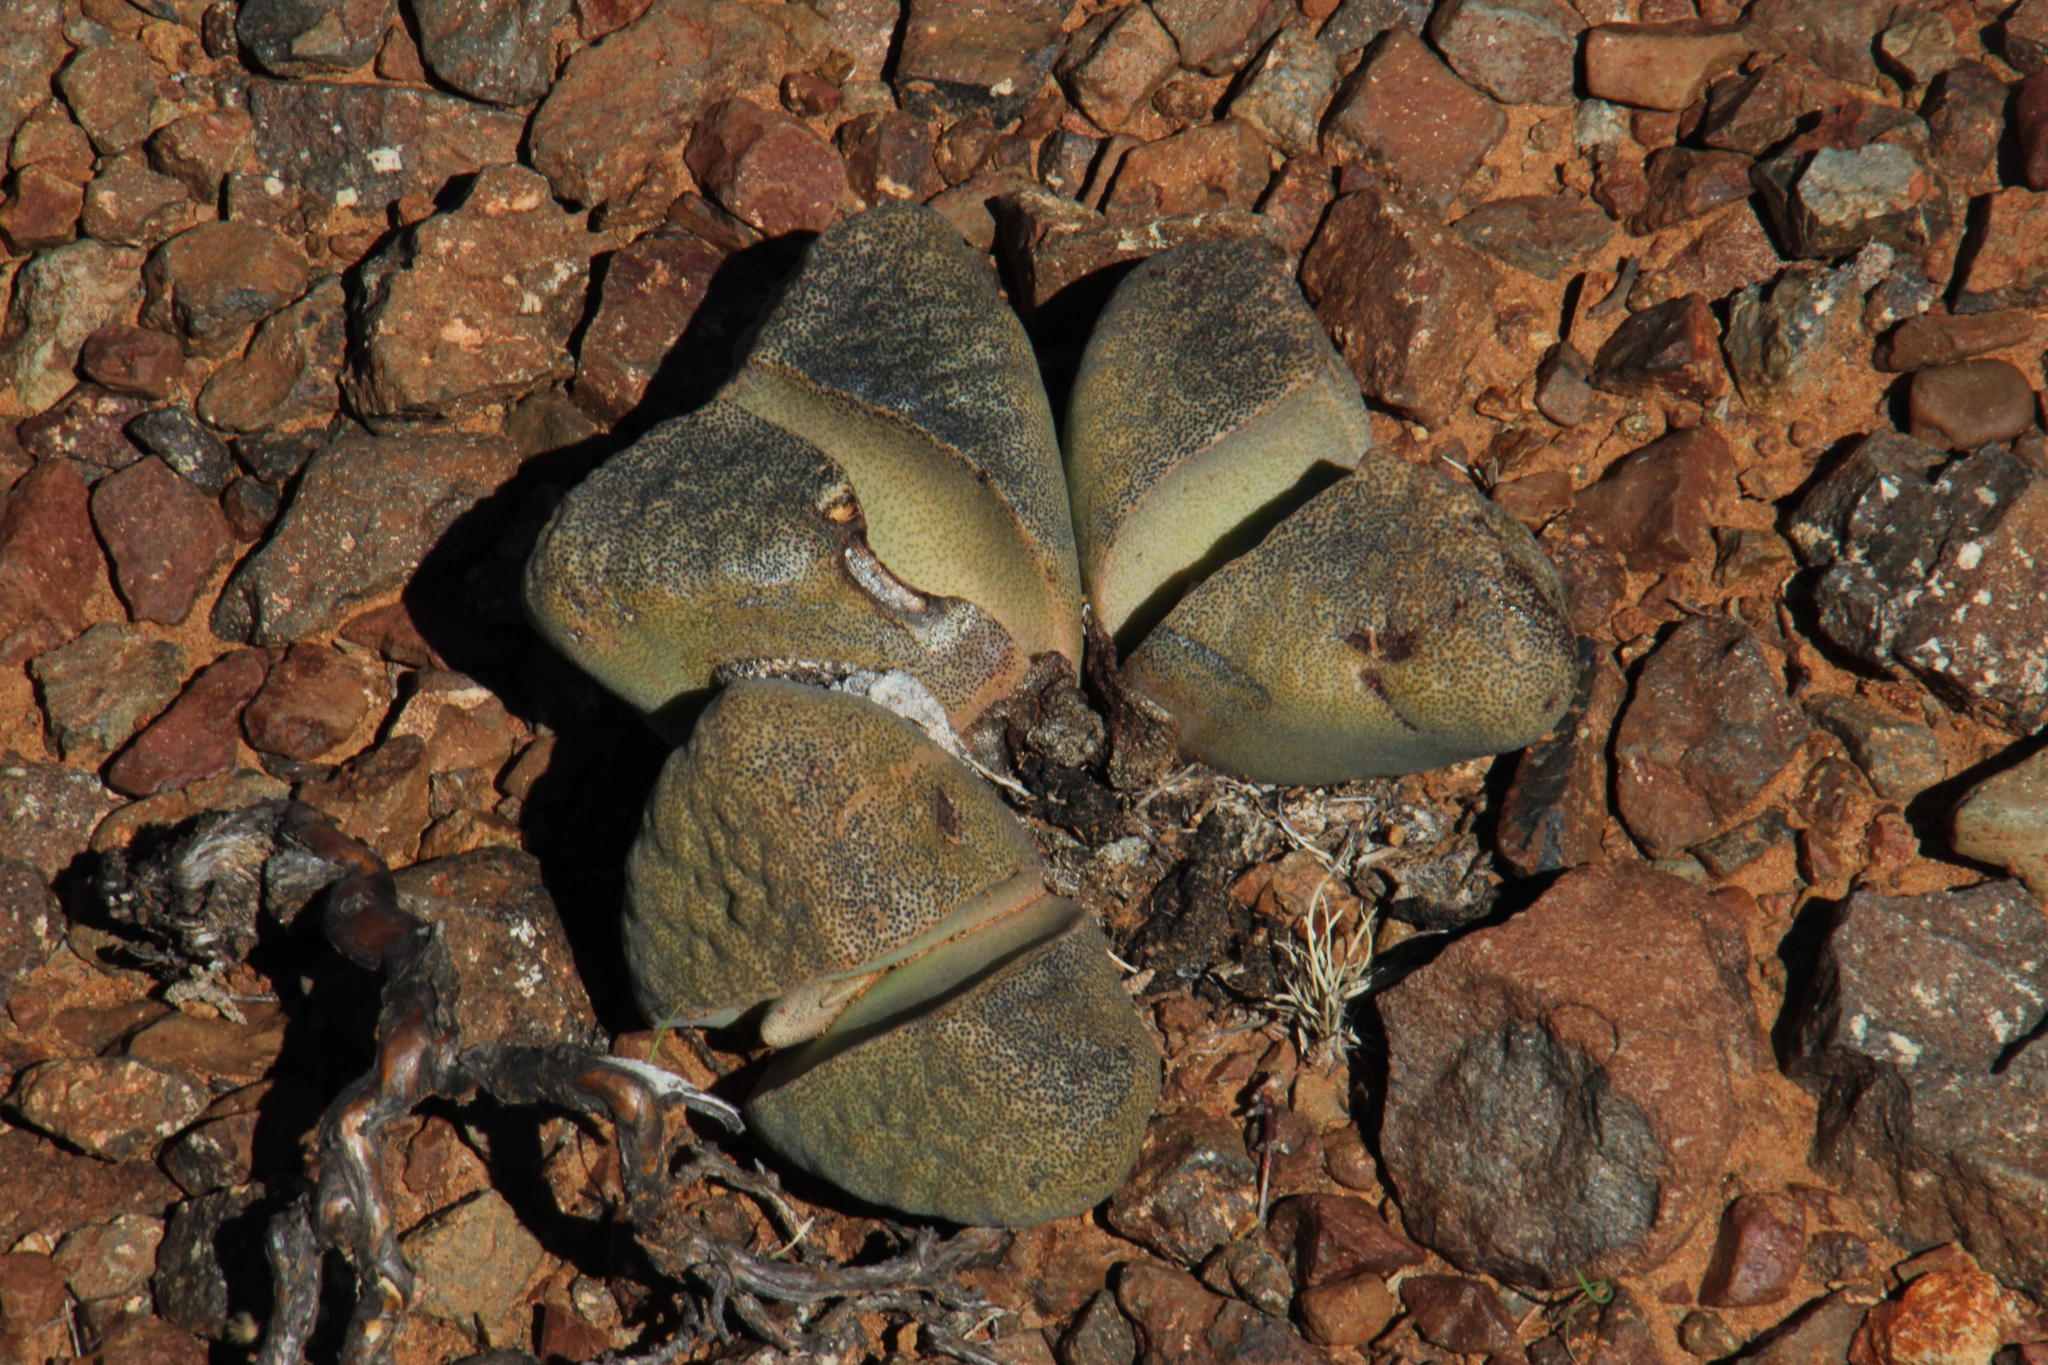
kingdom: Plantae
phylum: Tracheophyta
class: Magnoliopsida
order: Caryophyllales
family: Aizoaceae
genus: Pleiospilos
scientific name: Pleiospilos bolusii
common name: African living-rock
